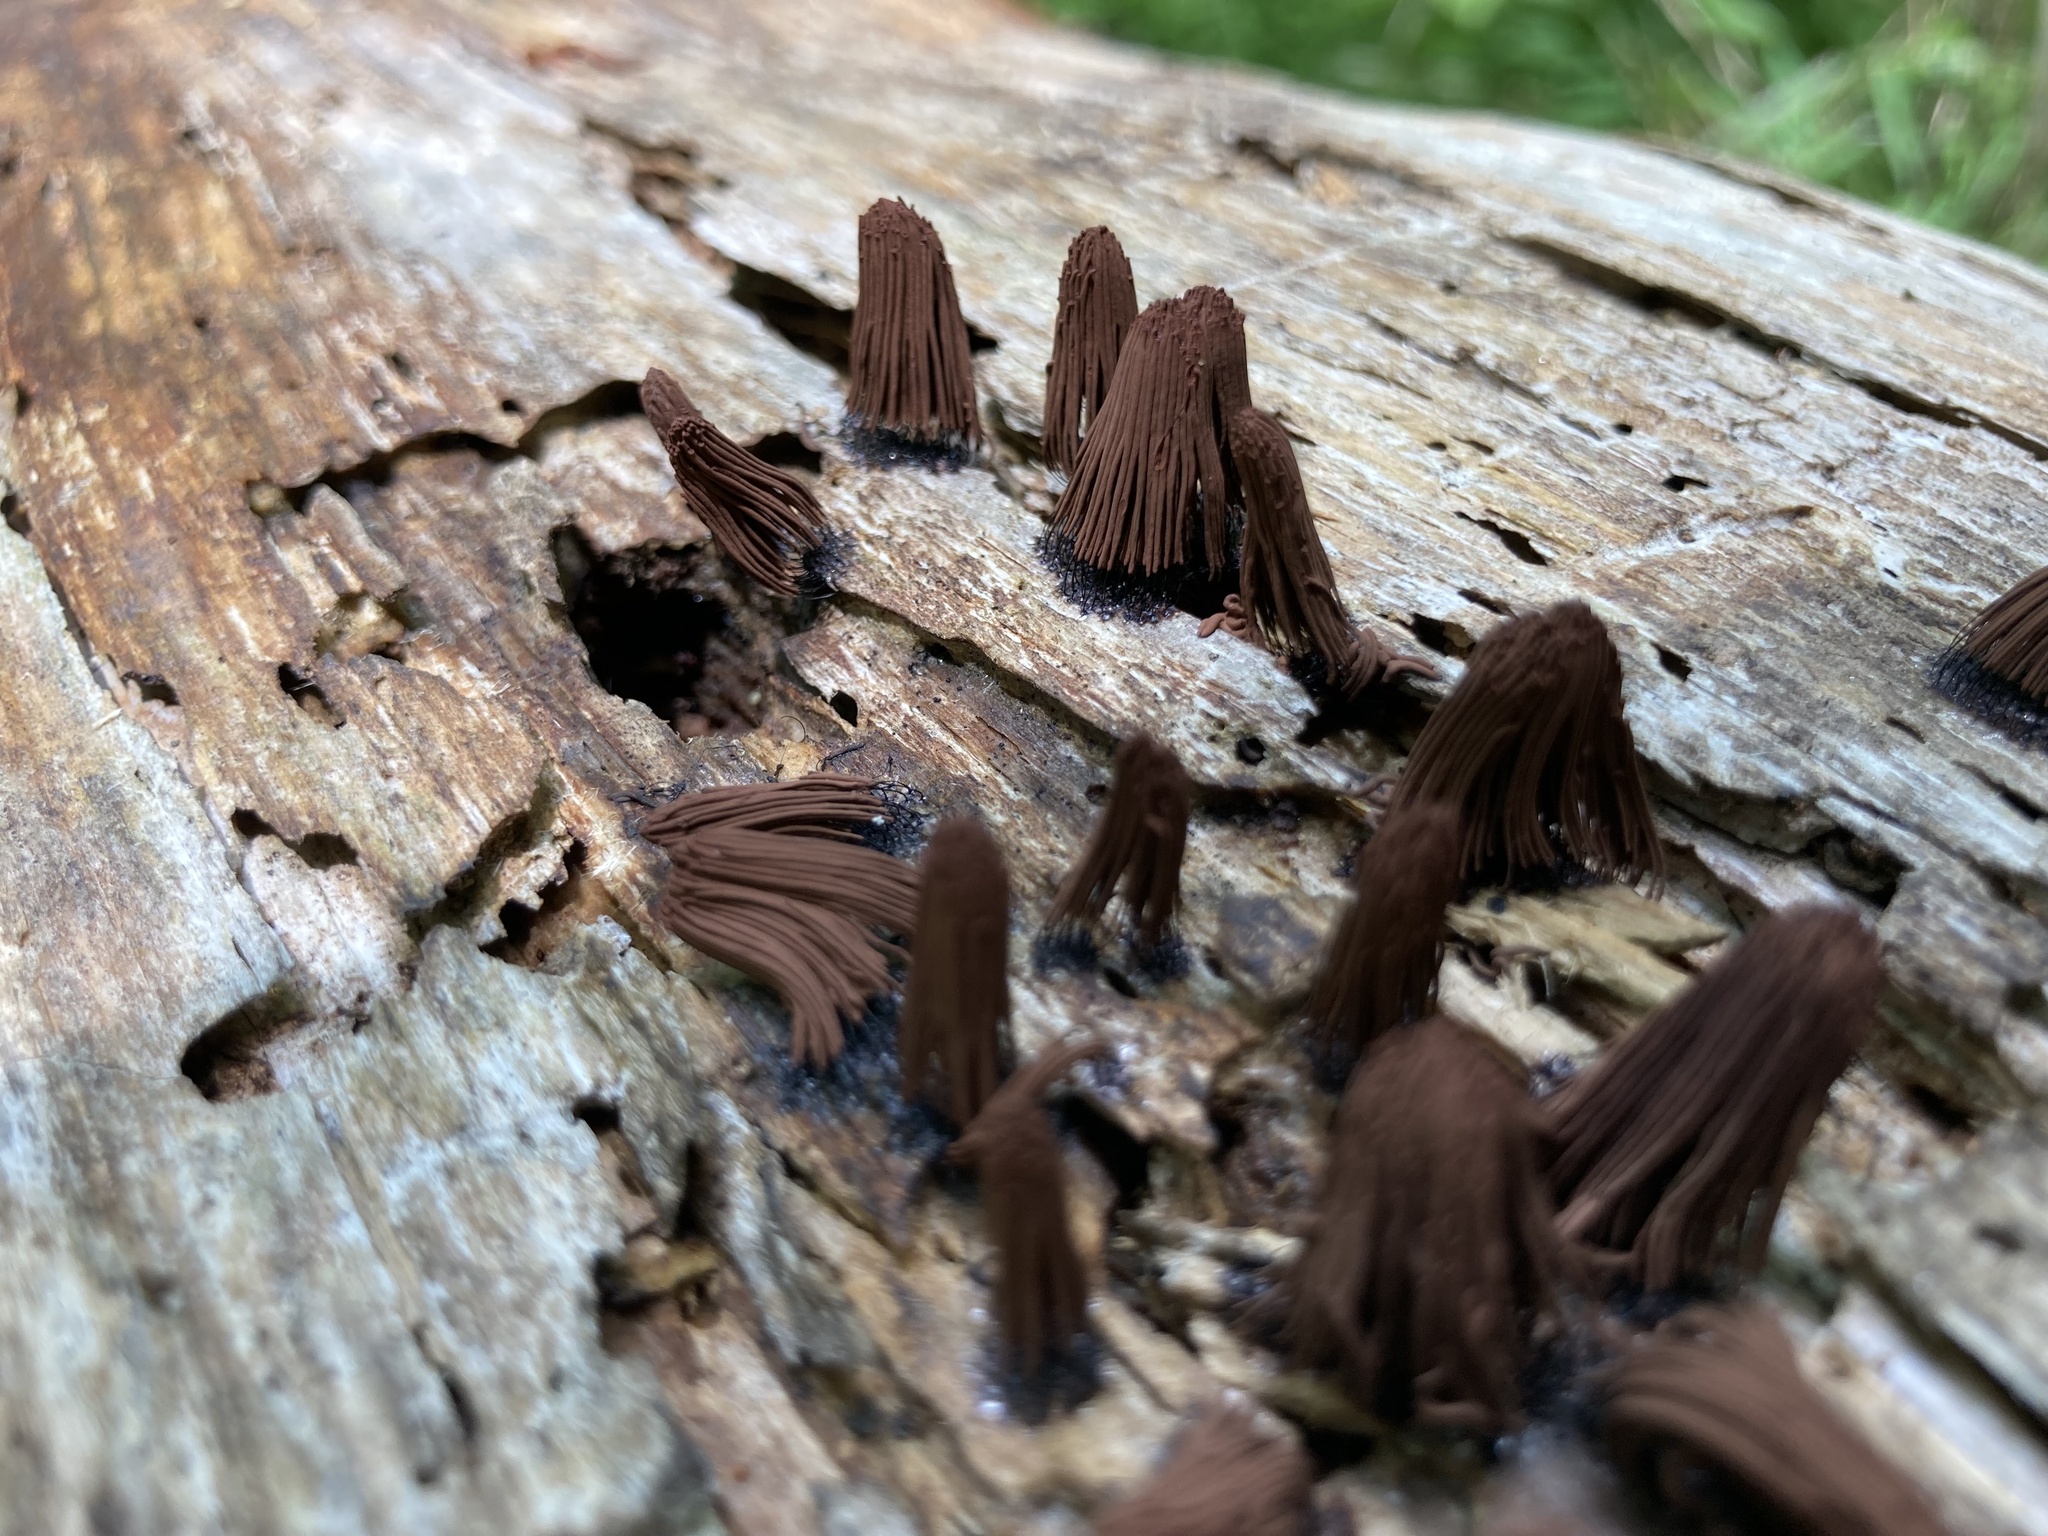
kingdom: Protozoa
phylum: Mycetozoa
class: Myxomycetes
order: Stemonitidales
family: Stemonitidaceae
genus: Stemonitis
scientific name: Stemonitis splendens
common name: Chocolate tube slime
